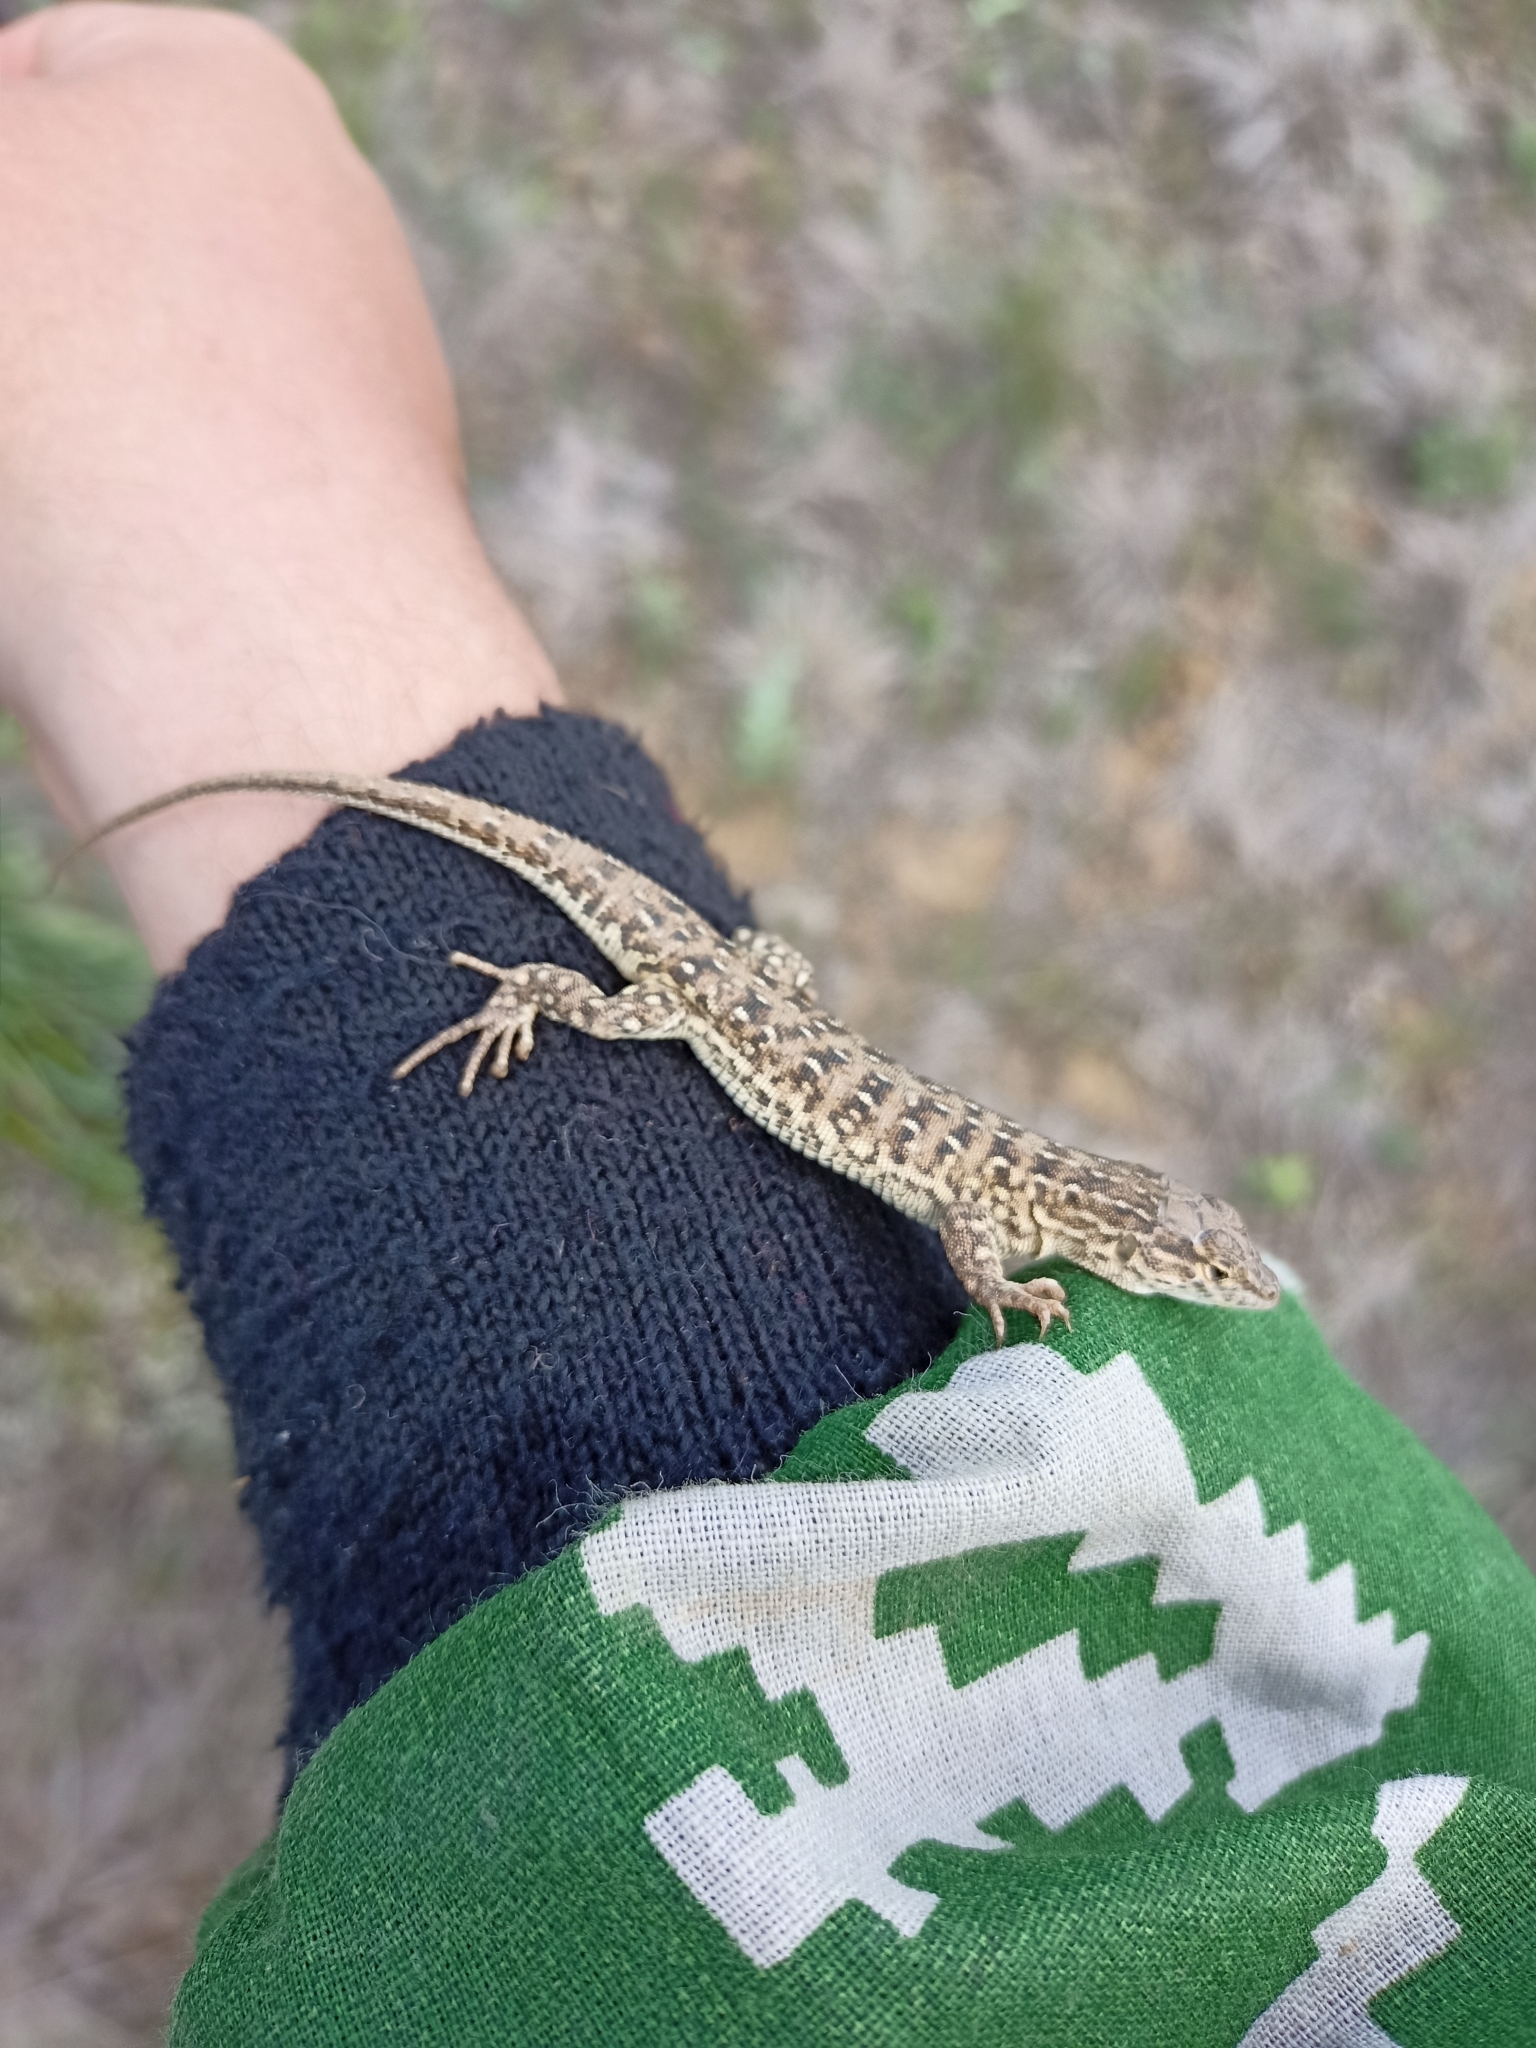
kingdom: Animalia
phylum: Chordata
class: Squamata
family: Lacertidae
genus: Eremias
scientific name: Eremias arguta
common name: Racerunner
